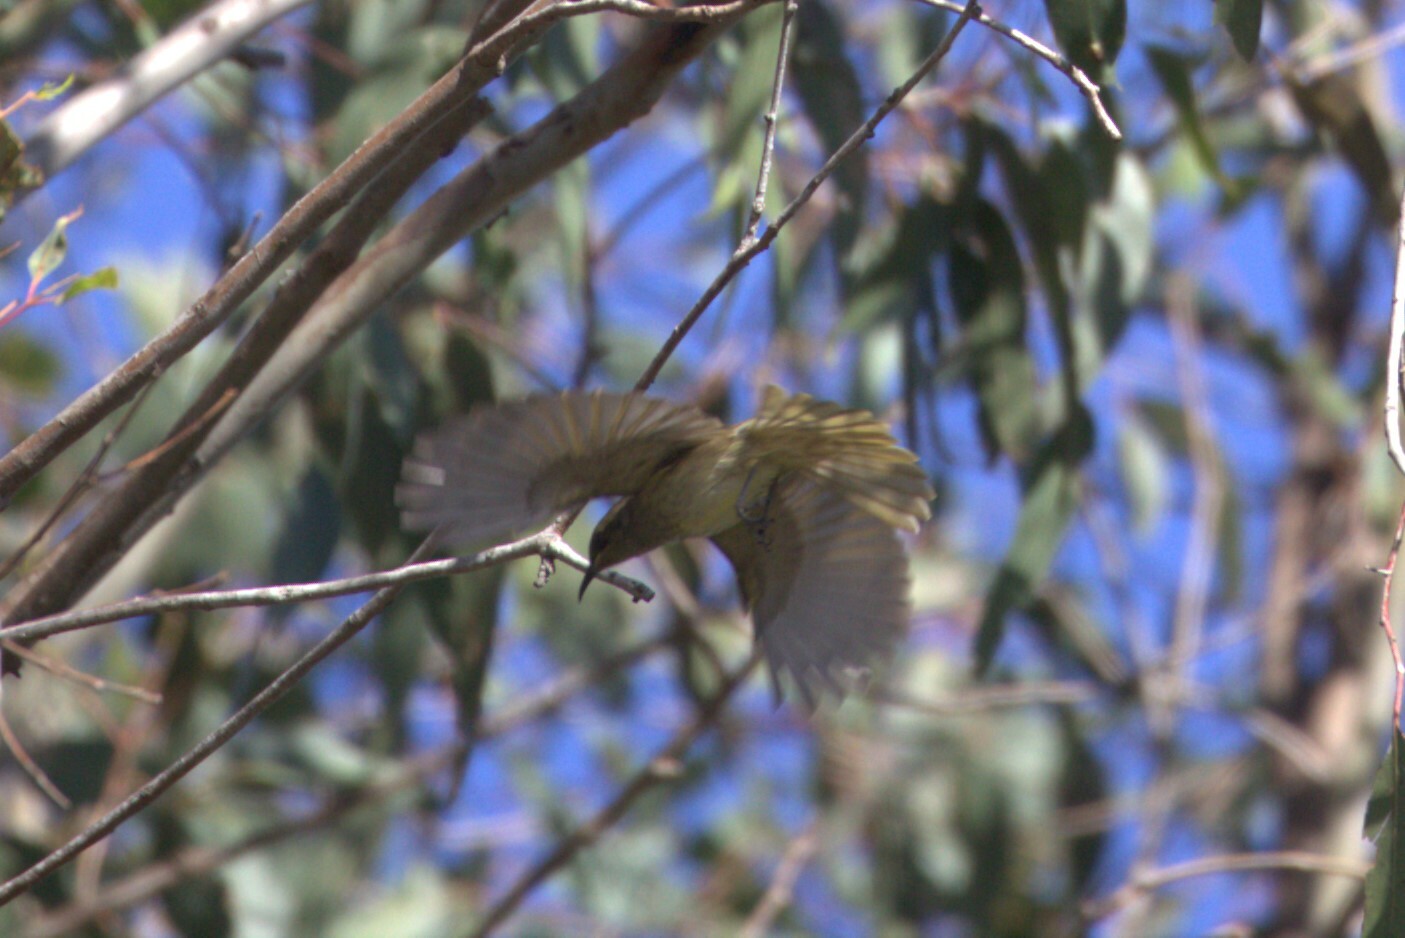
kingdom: Animalia
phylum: Chordata
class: Aves
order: Passeriformes
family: Meliphagidae
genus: Lichmera
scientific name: Lichmera indistincta
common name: Brown honeyeater
